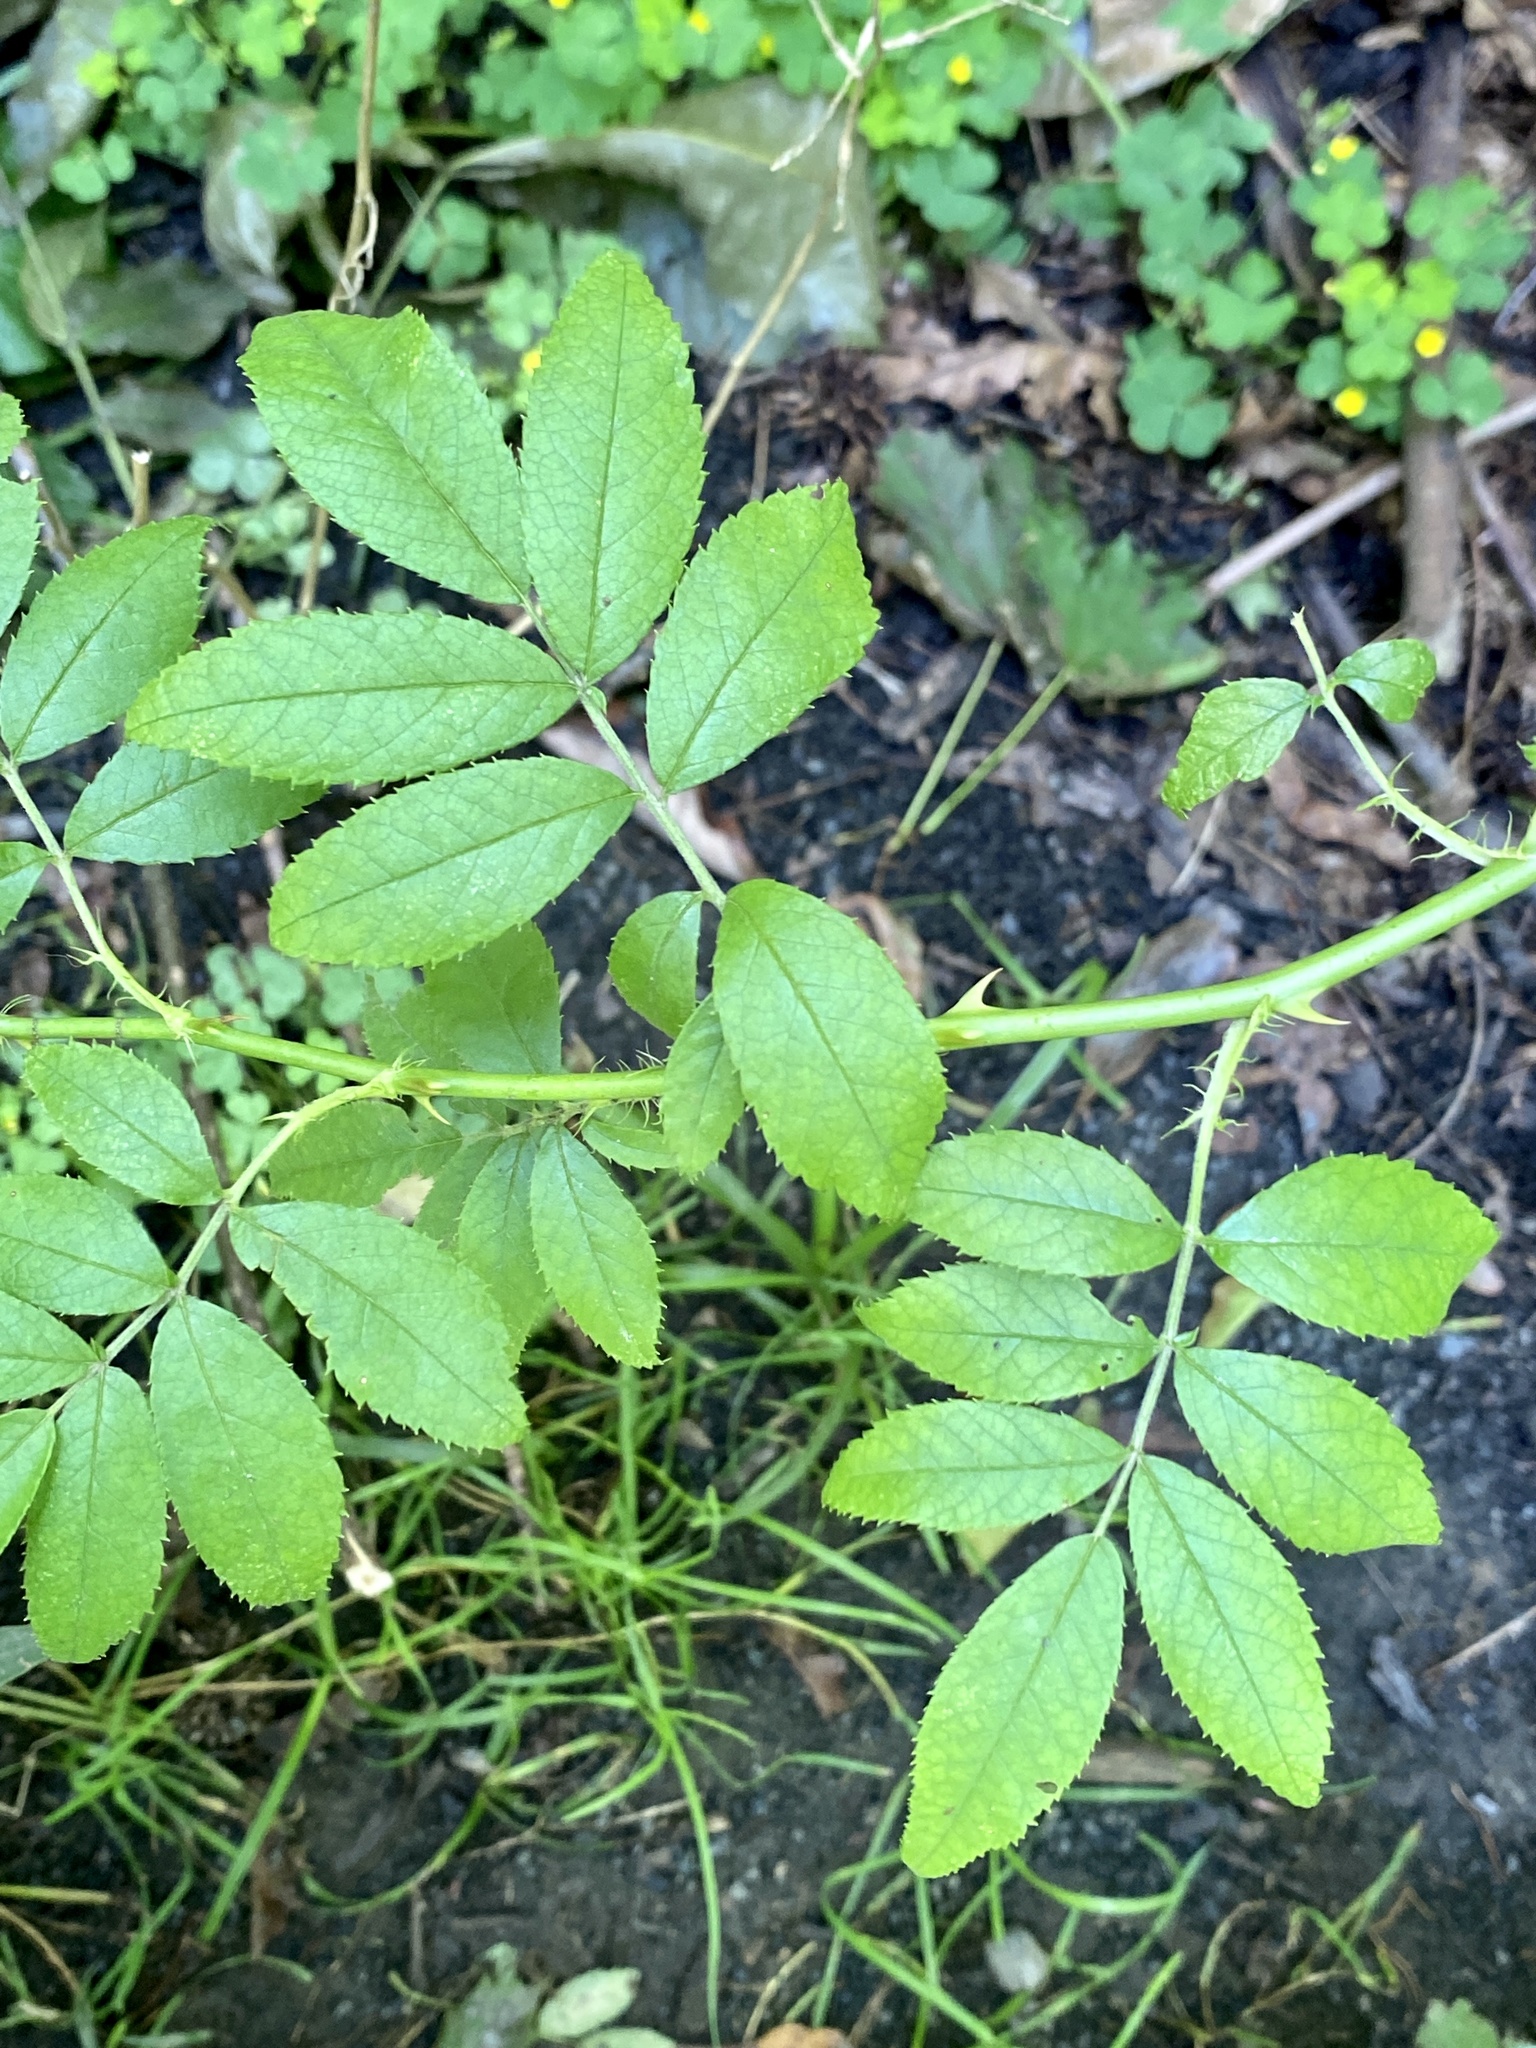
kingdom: Plantae
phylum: Tracheophyta
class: Magnoliopsida
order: Rosales
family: Rosaceae
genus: Rosa
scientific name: Rosa multiflora
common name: Multiflora rose
